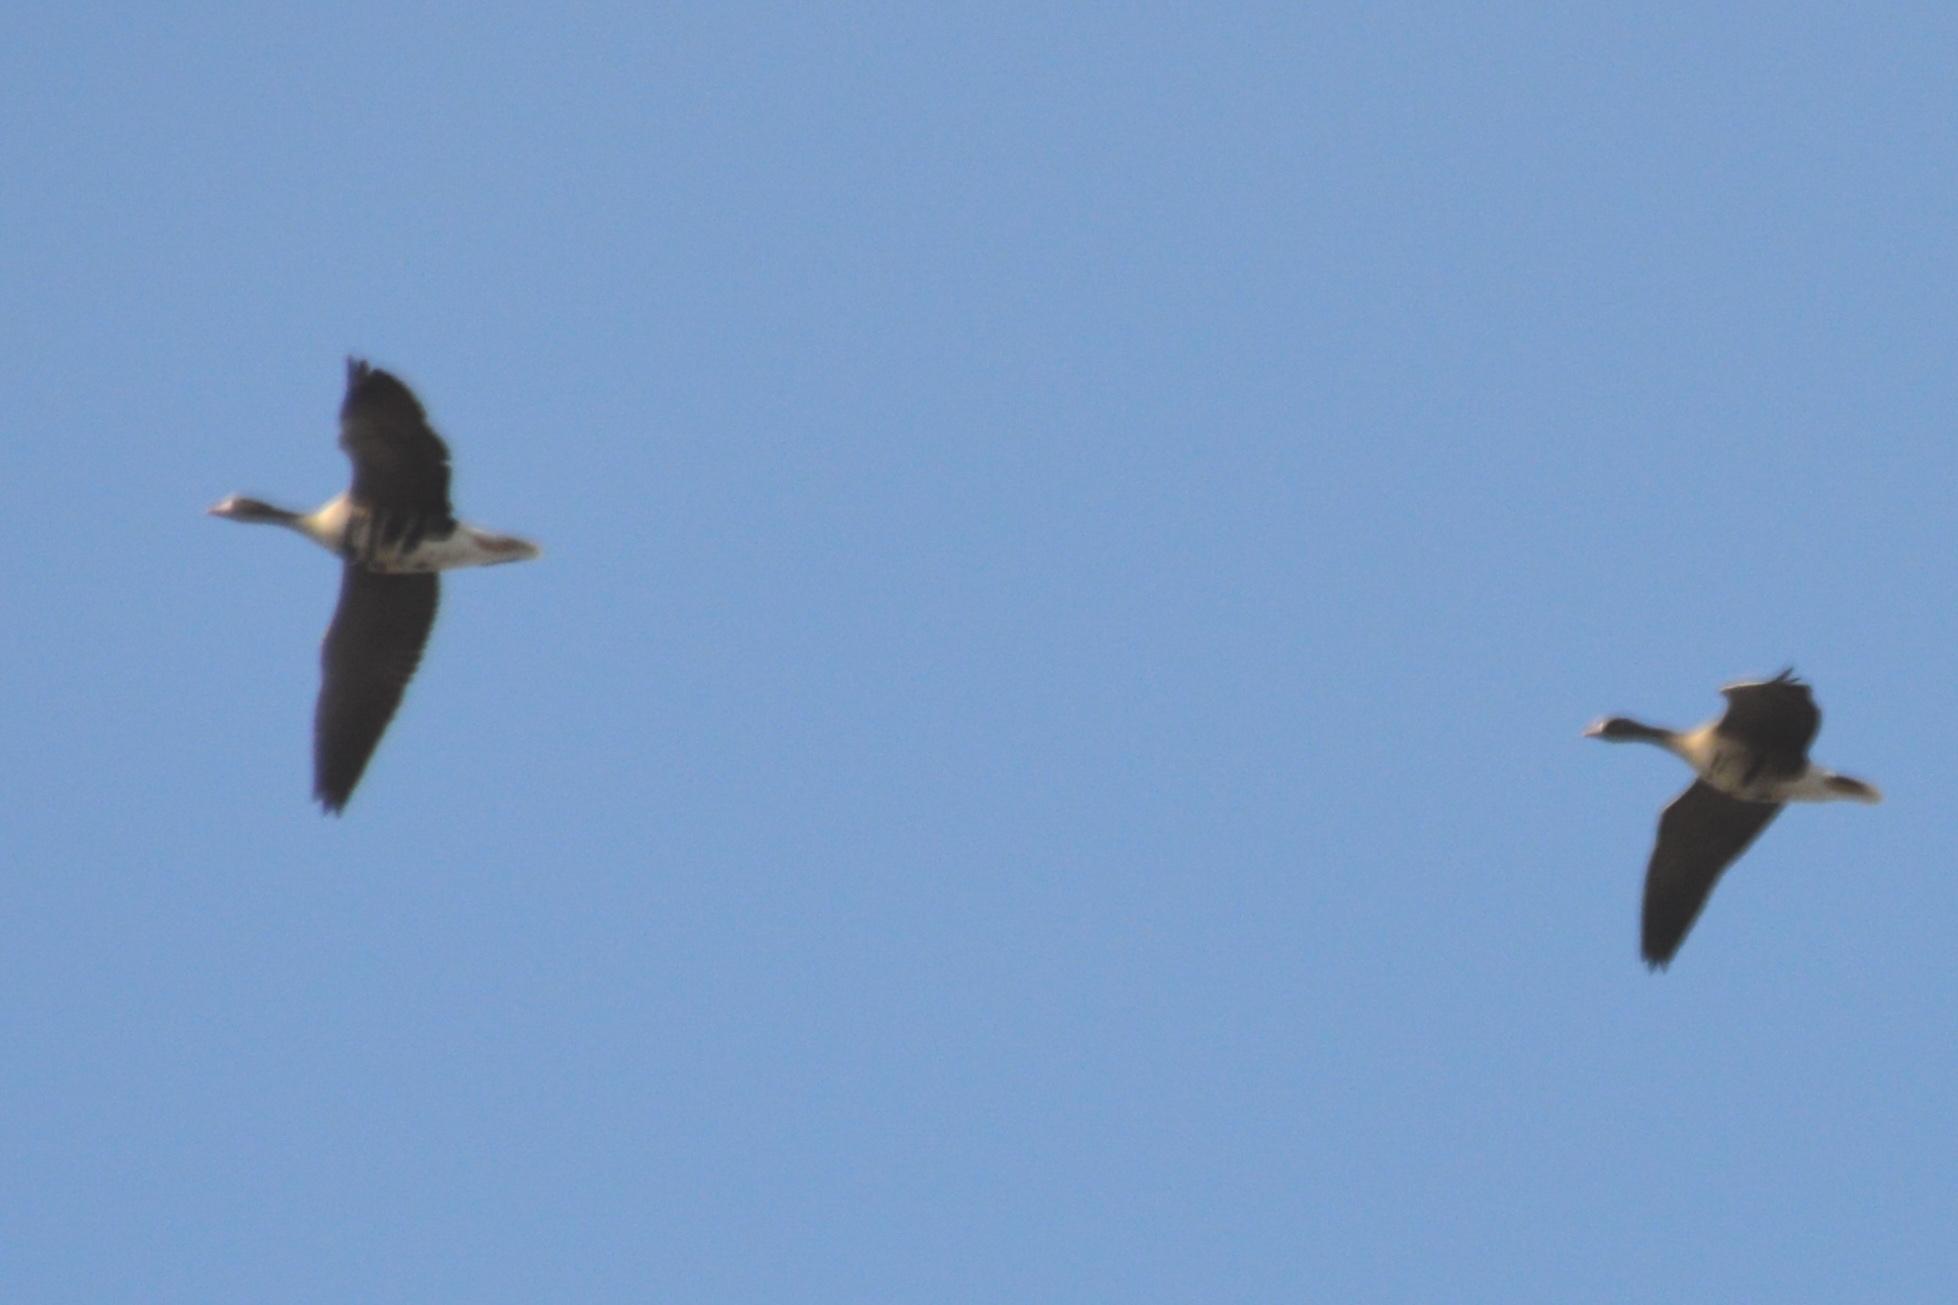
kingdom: Animalia
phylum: Chordata
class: Aves
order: Anseriformes
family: Anatidae
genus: Anser
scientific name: Anser albifrons
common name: Greater white-fronted goose
